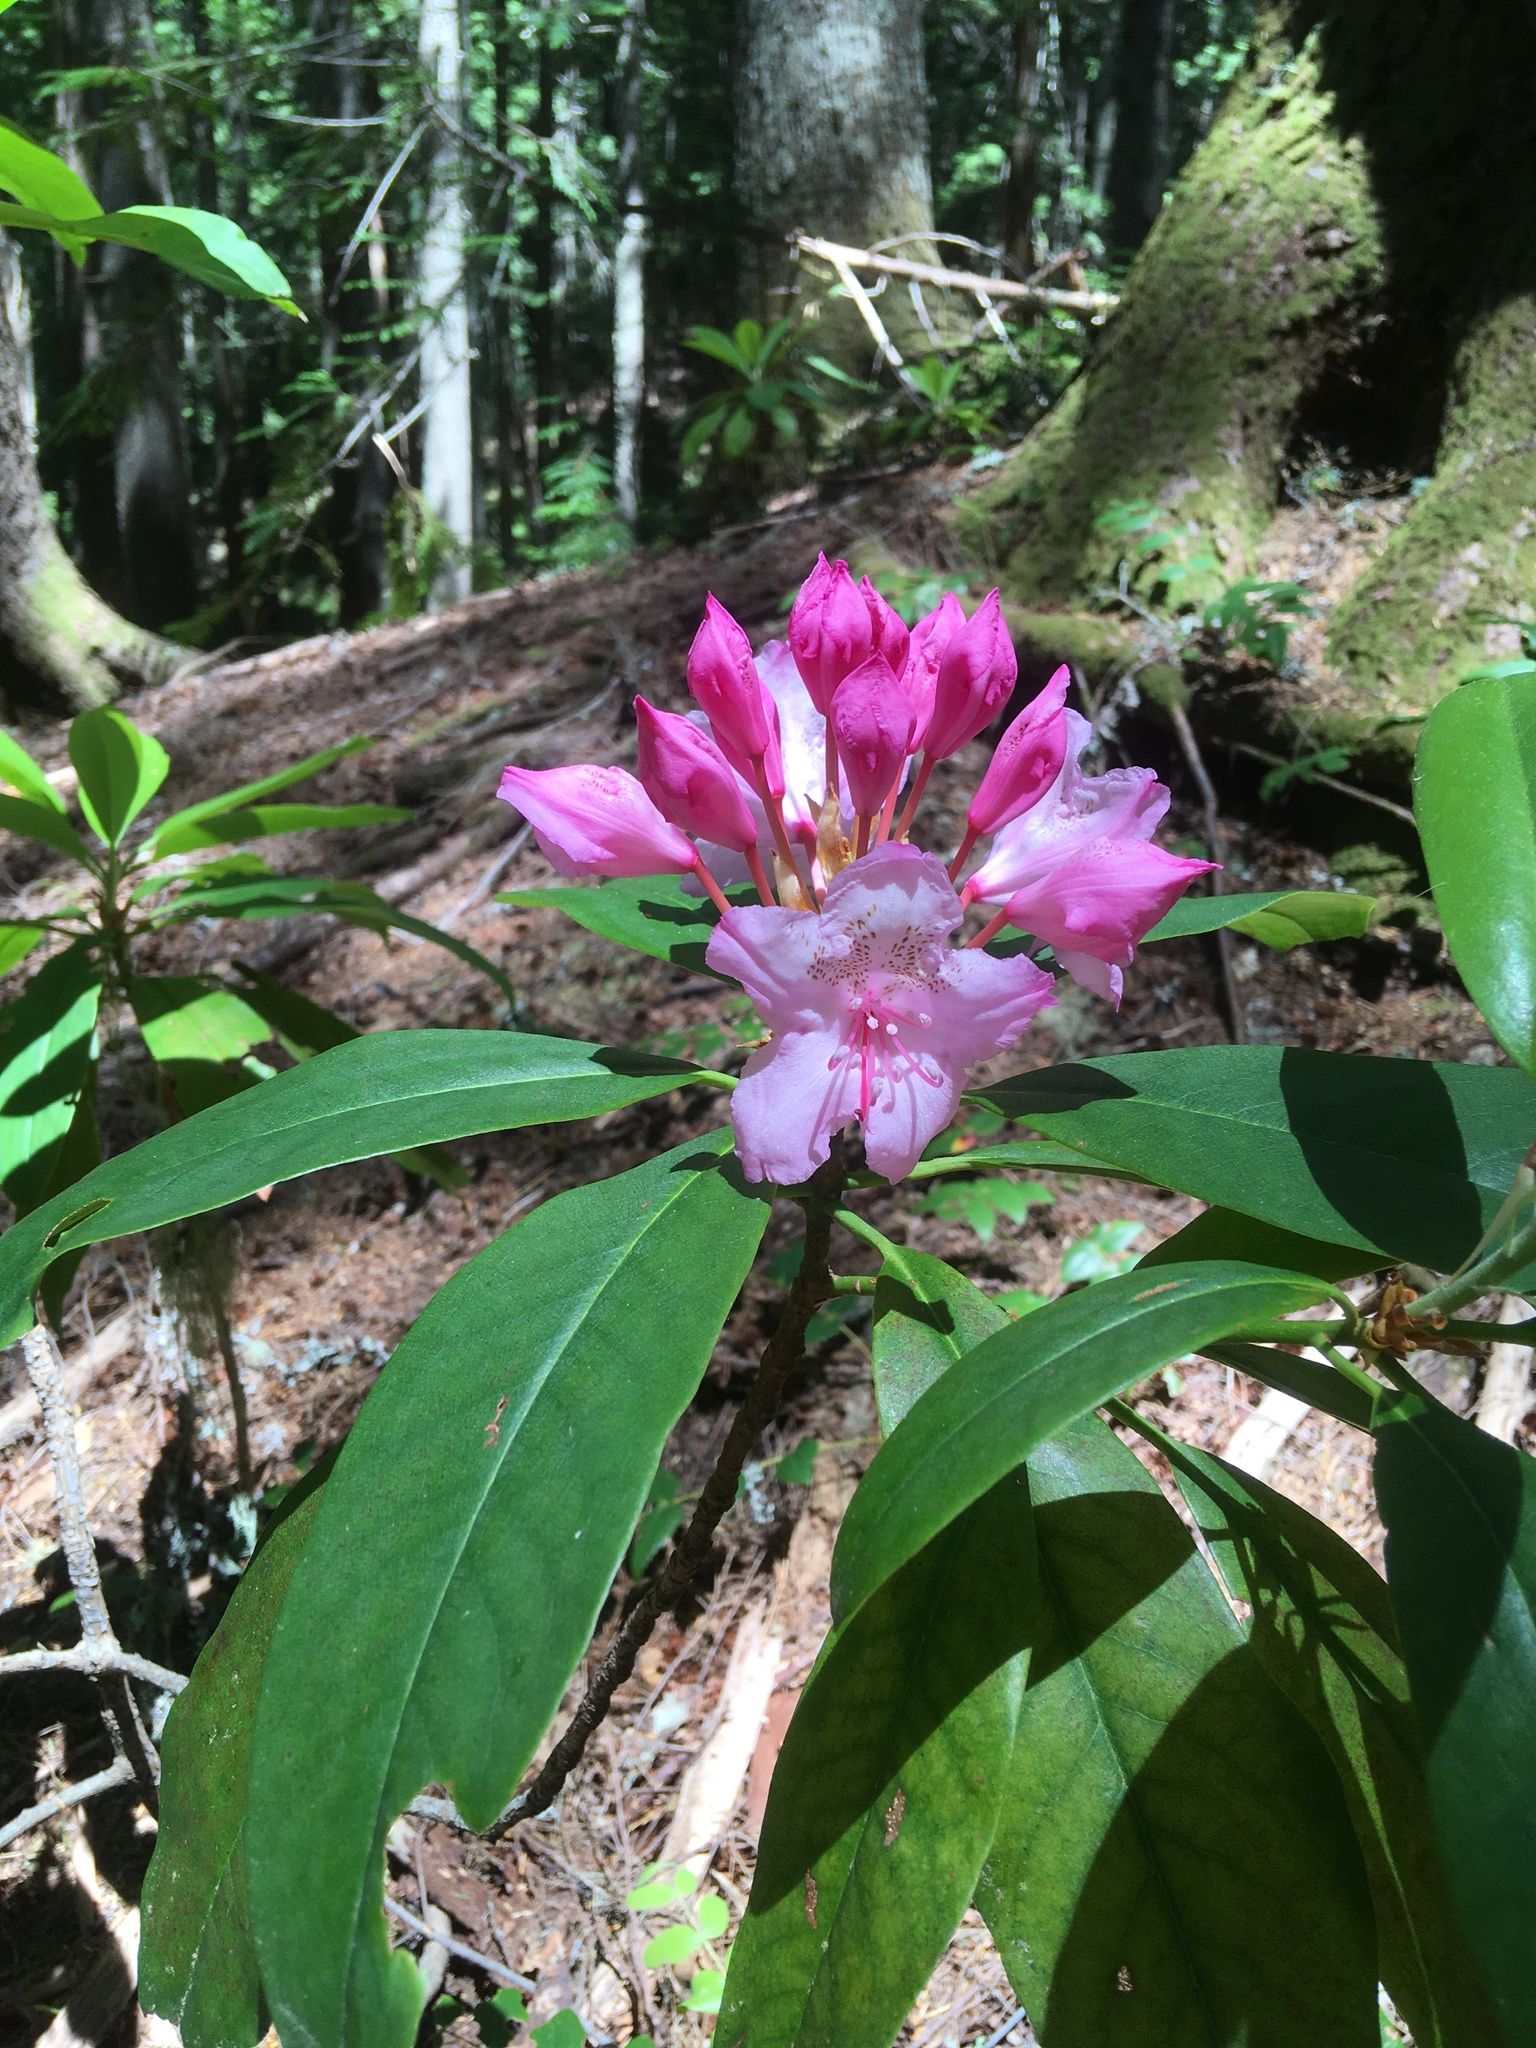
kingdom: Plantae
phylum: Tracheophyta
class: Magnoliopsida
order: Ericales
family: Ericaceae
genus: Rhododendron
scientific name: Rhododendron macrophyllum
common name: California rose bay
